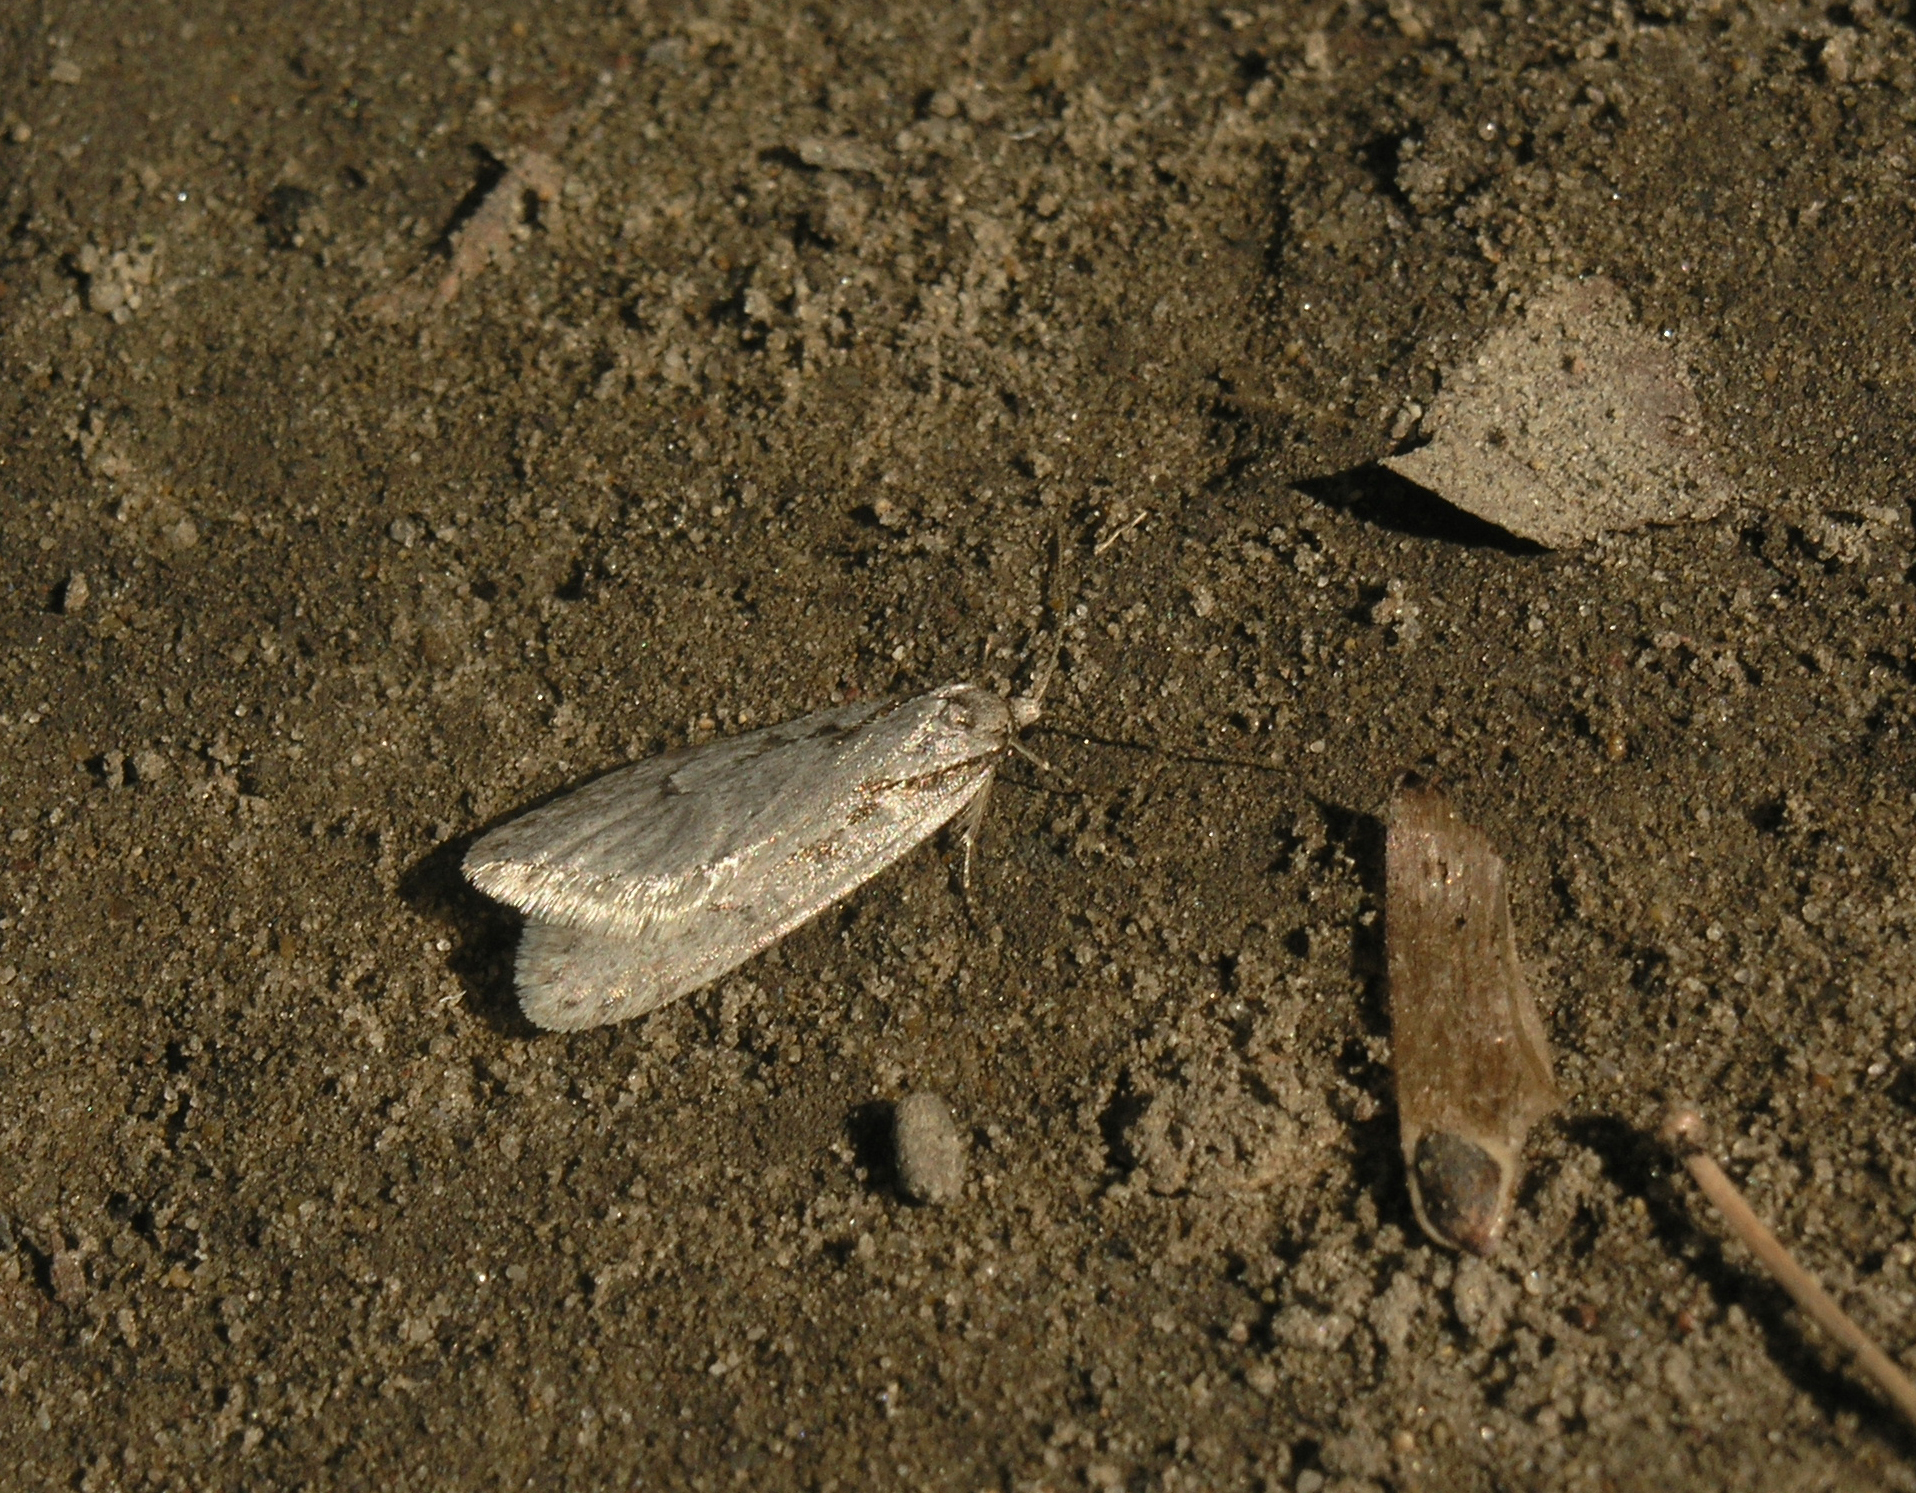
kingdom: Animalia
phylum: Arthropoda
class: Insecta
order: Lepidoptera
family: Depressariidae
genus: Semioscopis
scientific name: Semioscopis avellanella
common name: Early flat-body
